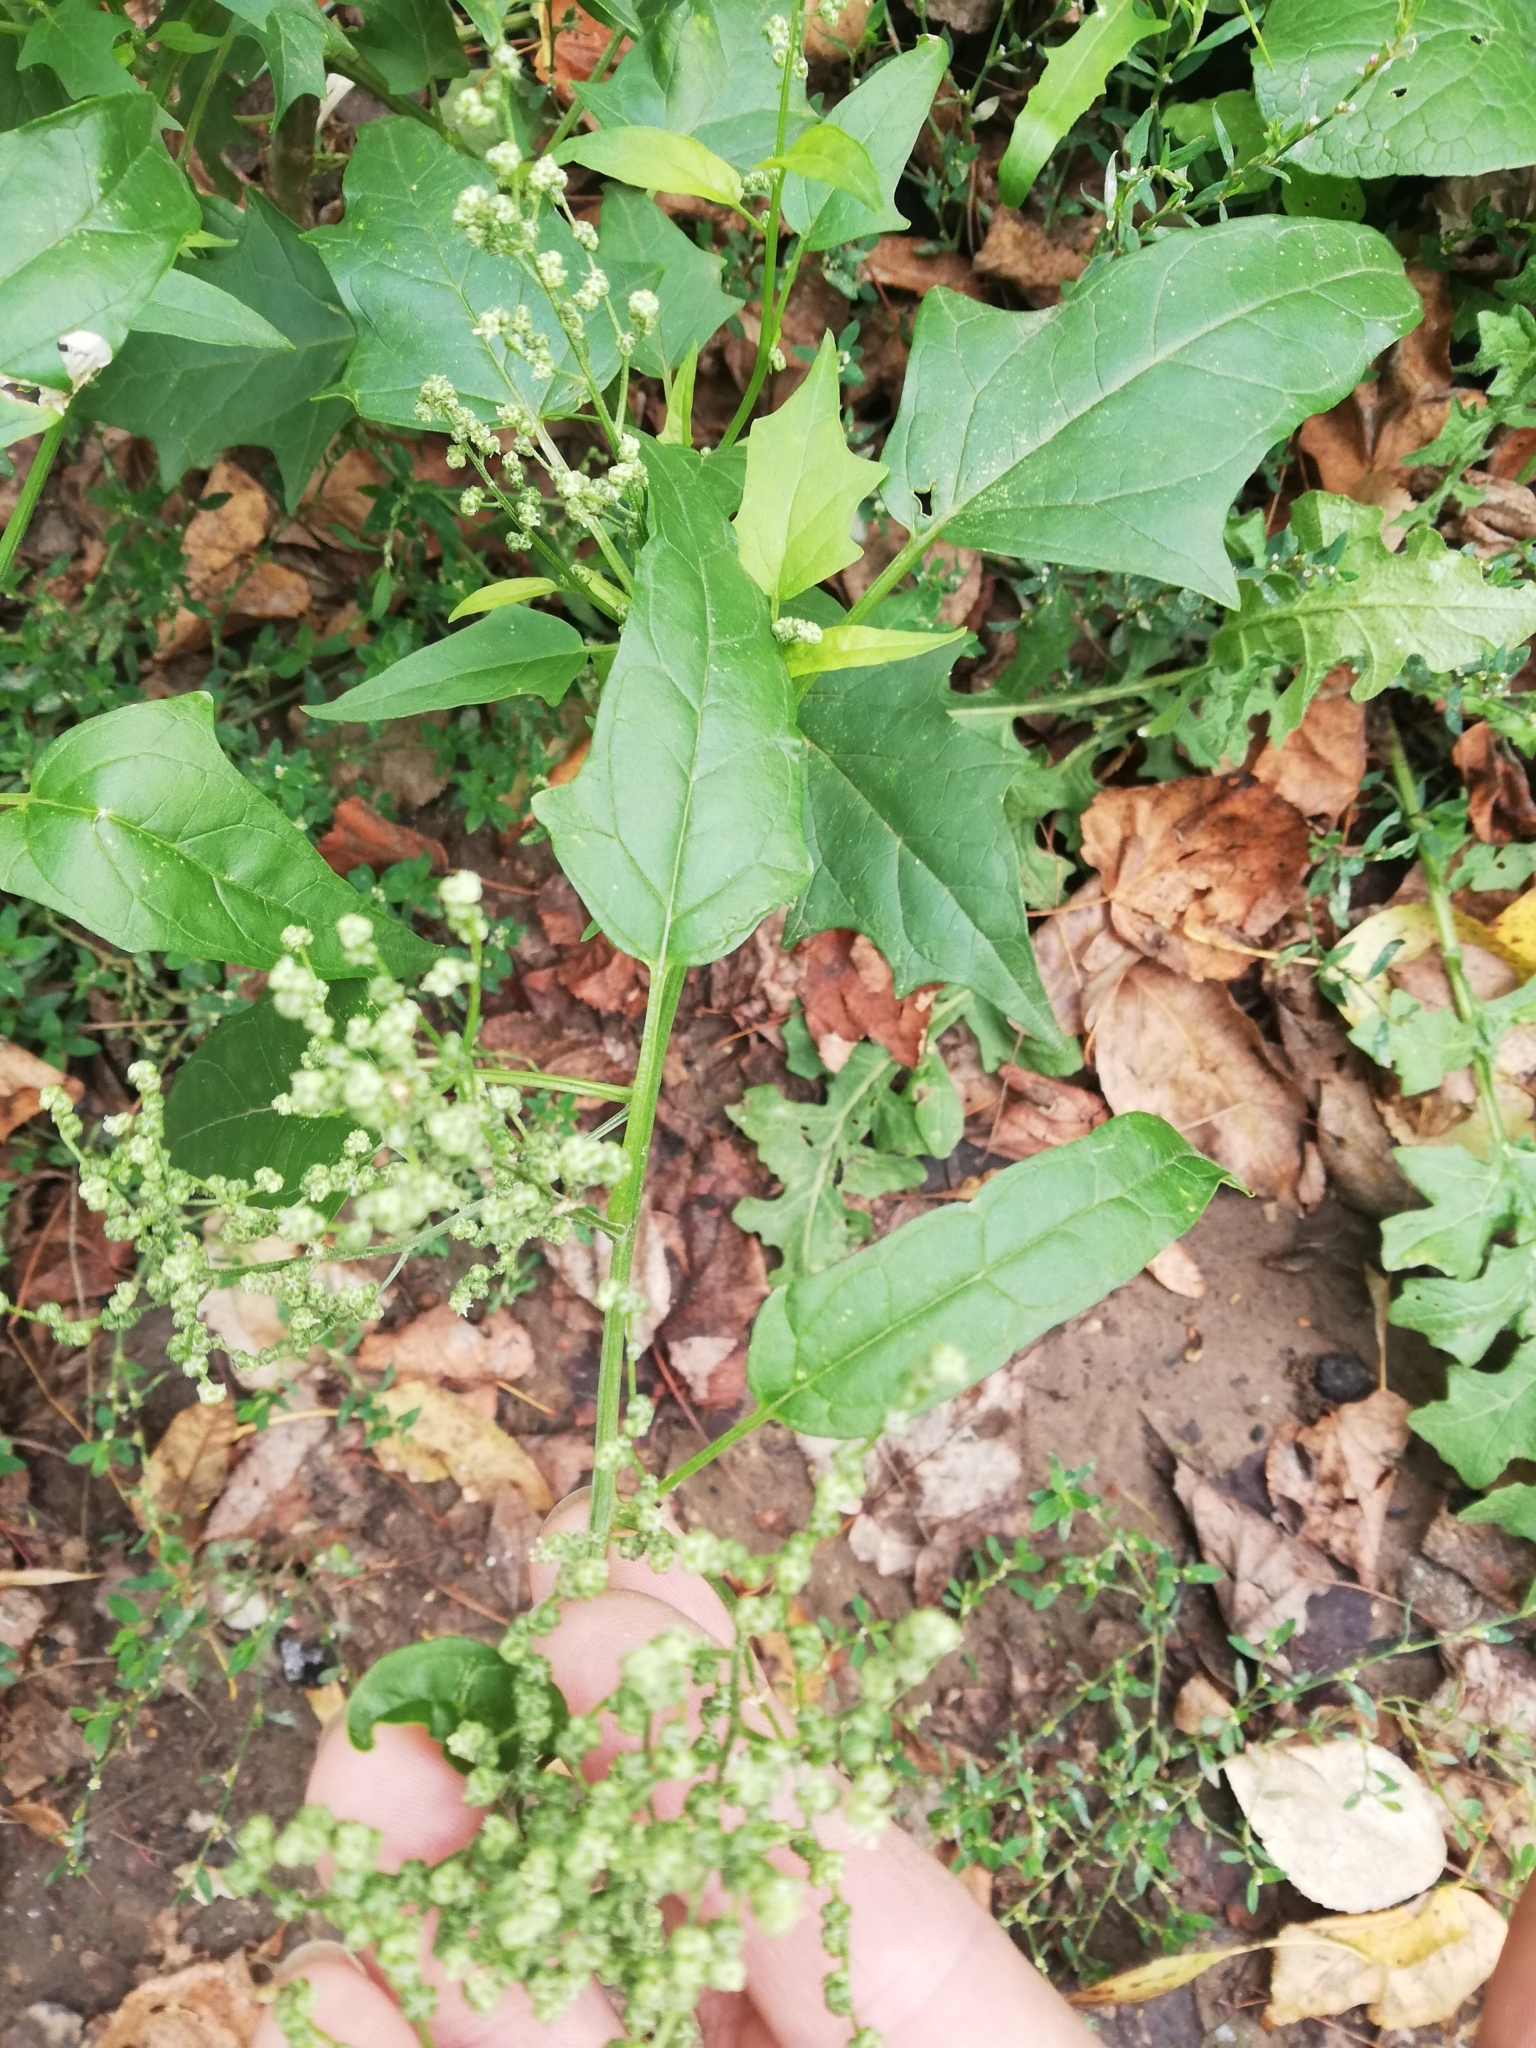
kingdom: Plantae
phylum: Tracheophyta
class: Magnoliopsida
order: Caryophyllales
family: Amaranthaceae
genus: Chenopodiastrum
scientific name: Chenopodiastrum hybridum
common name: Mapleleaf goosefoot
